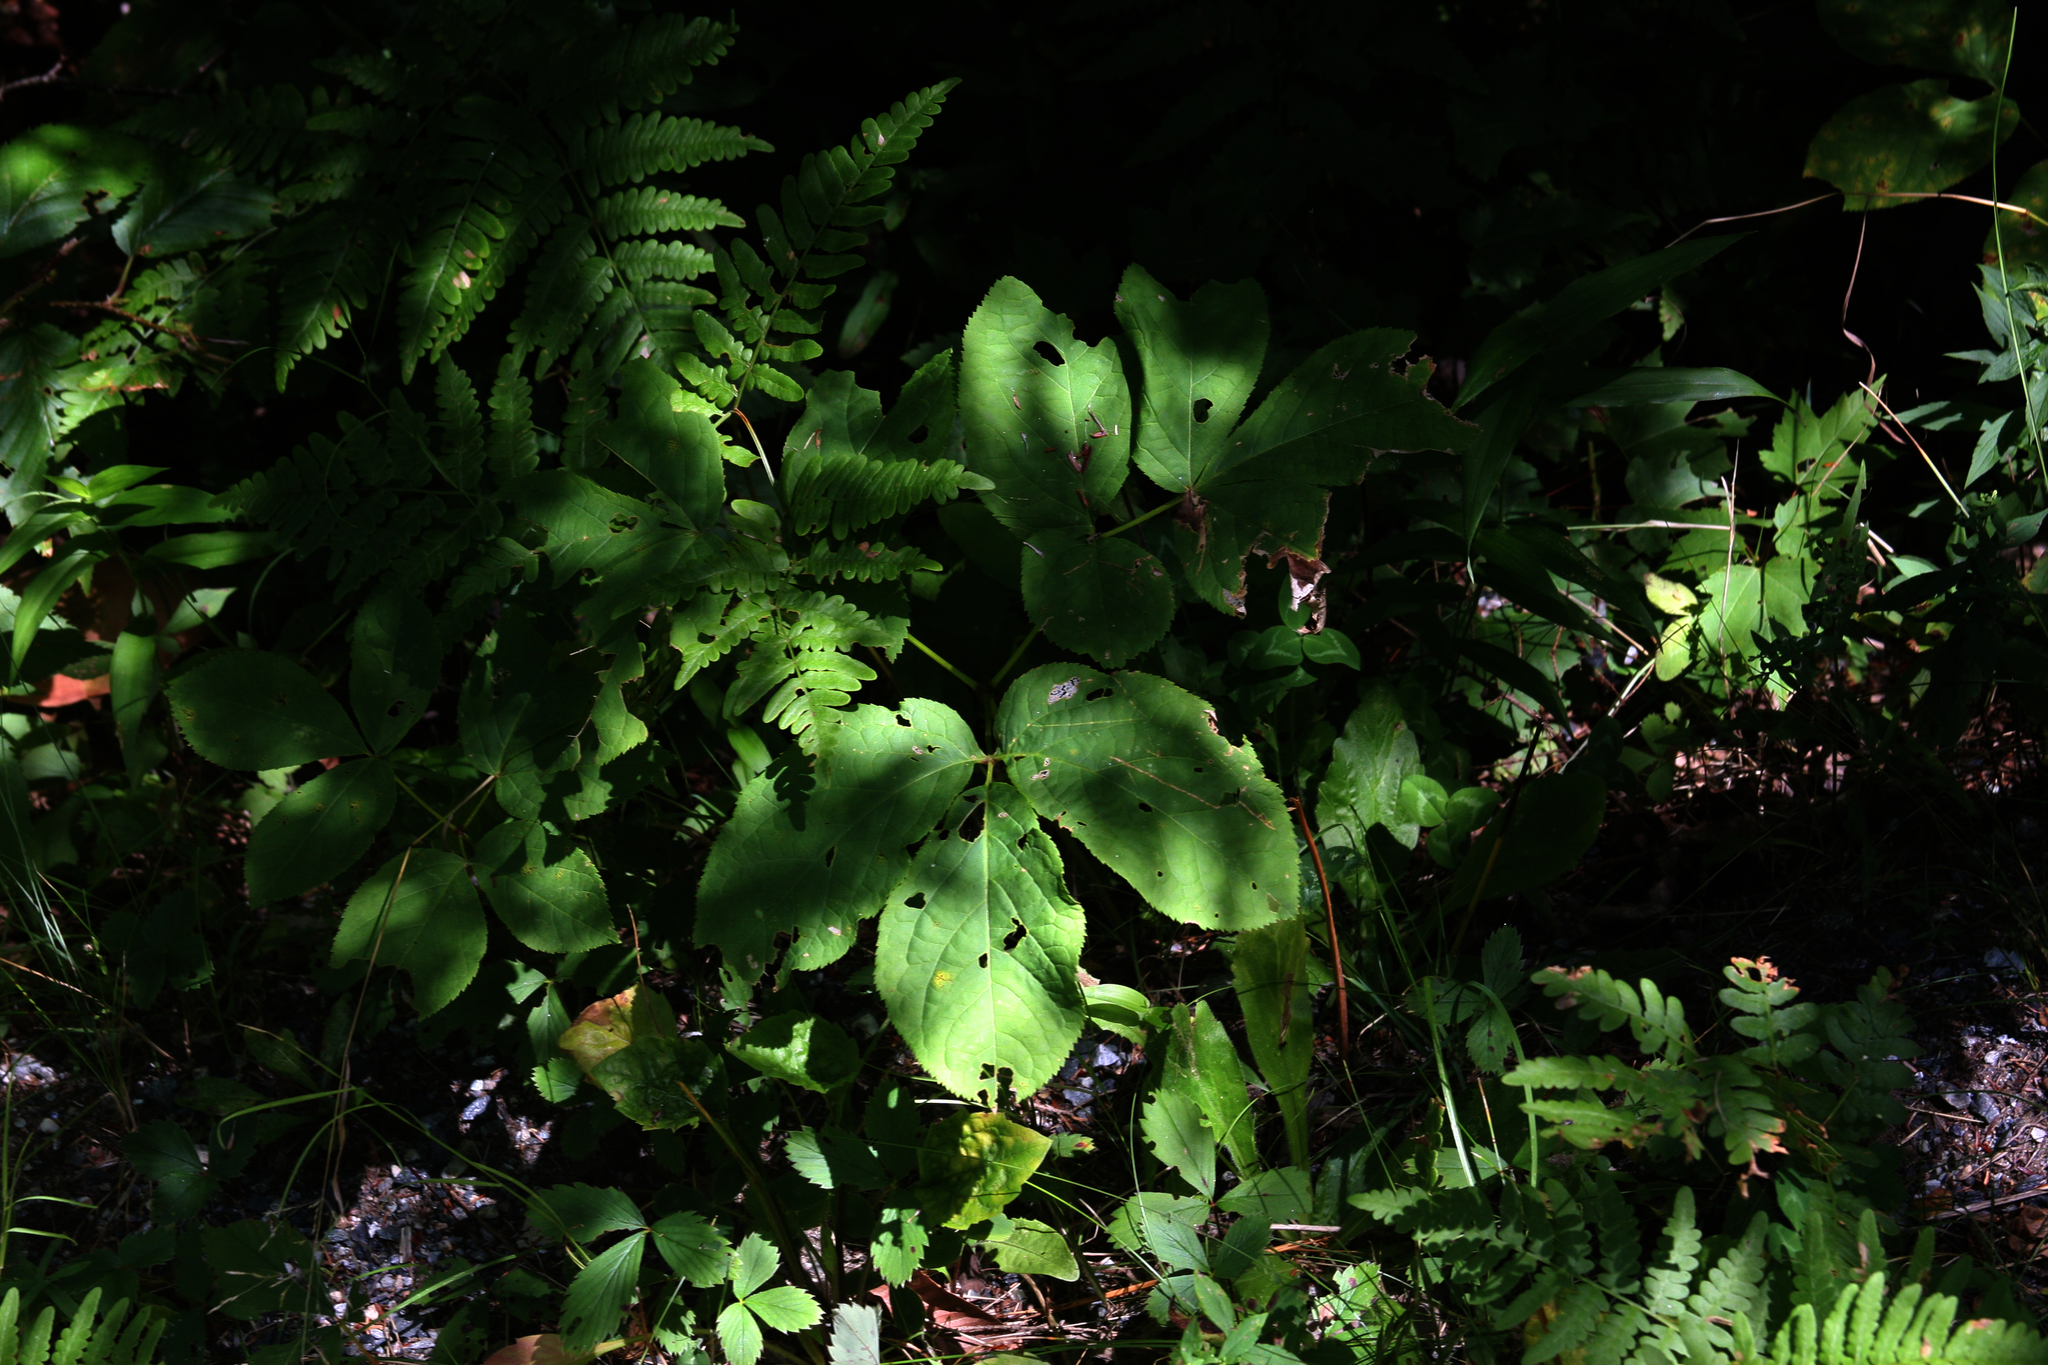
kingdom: Plantae
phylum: Tracheophyta
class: Magnoliopsida
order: Apiales
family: Araliaceae
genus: Aralia
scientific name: Aralia nudicaulis
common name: Wild sarsaparilla
